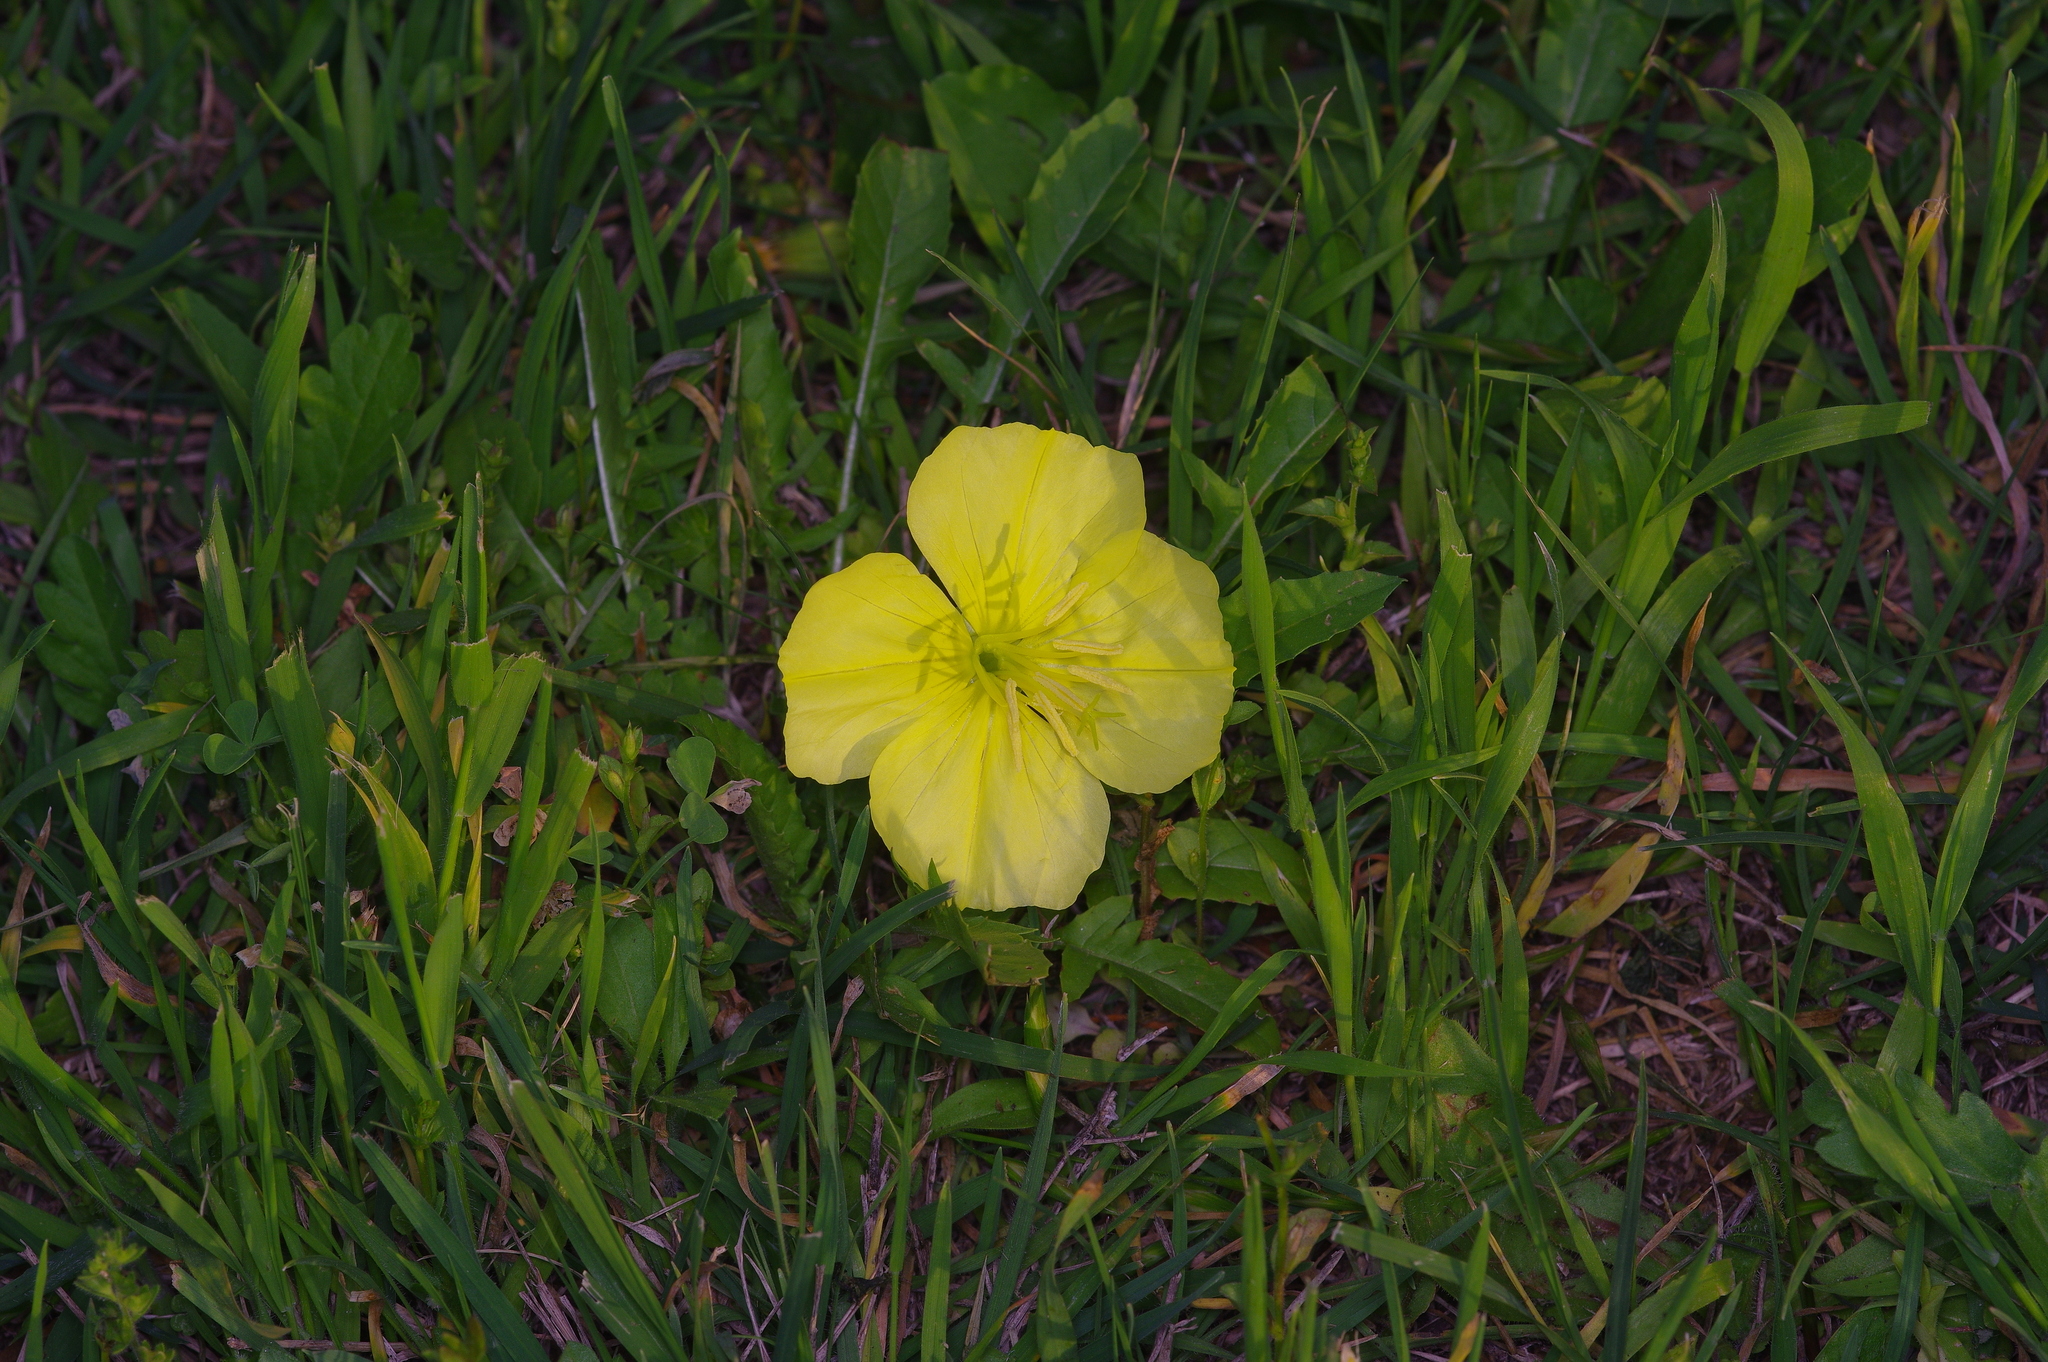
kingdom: Plantae
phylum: Tracheophyta
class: Magnoliopsida
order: Myrtales
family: Onagraceae
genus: Oenothera
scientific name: Oenothera laciniata
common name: Cut-leaved evening-primrose
